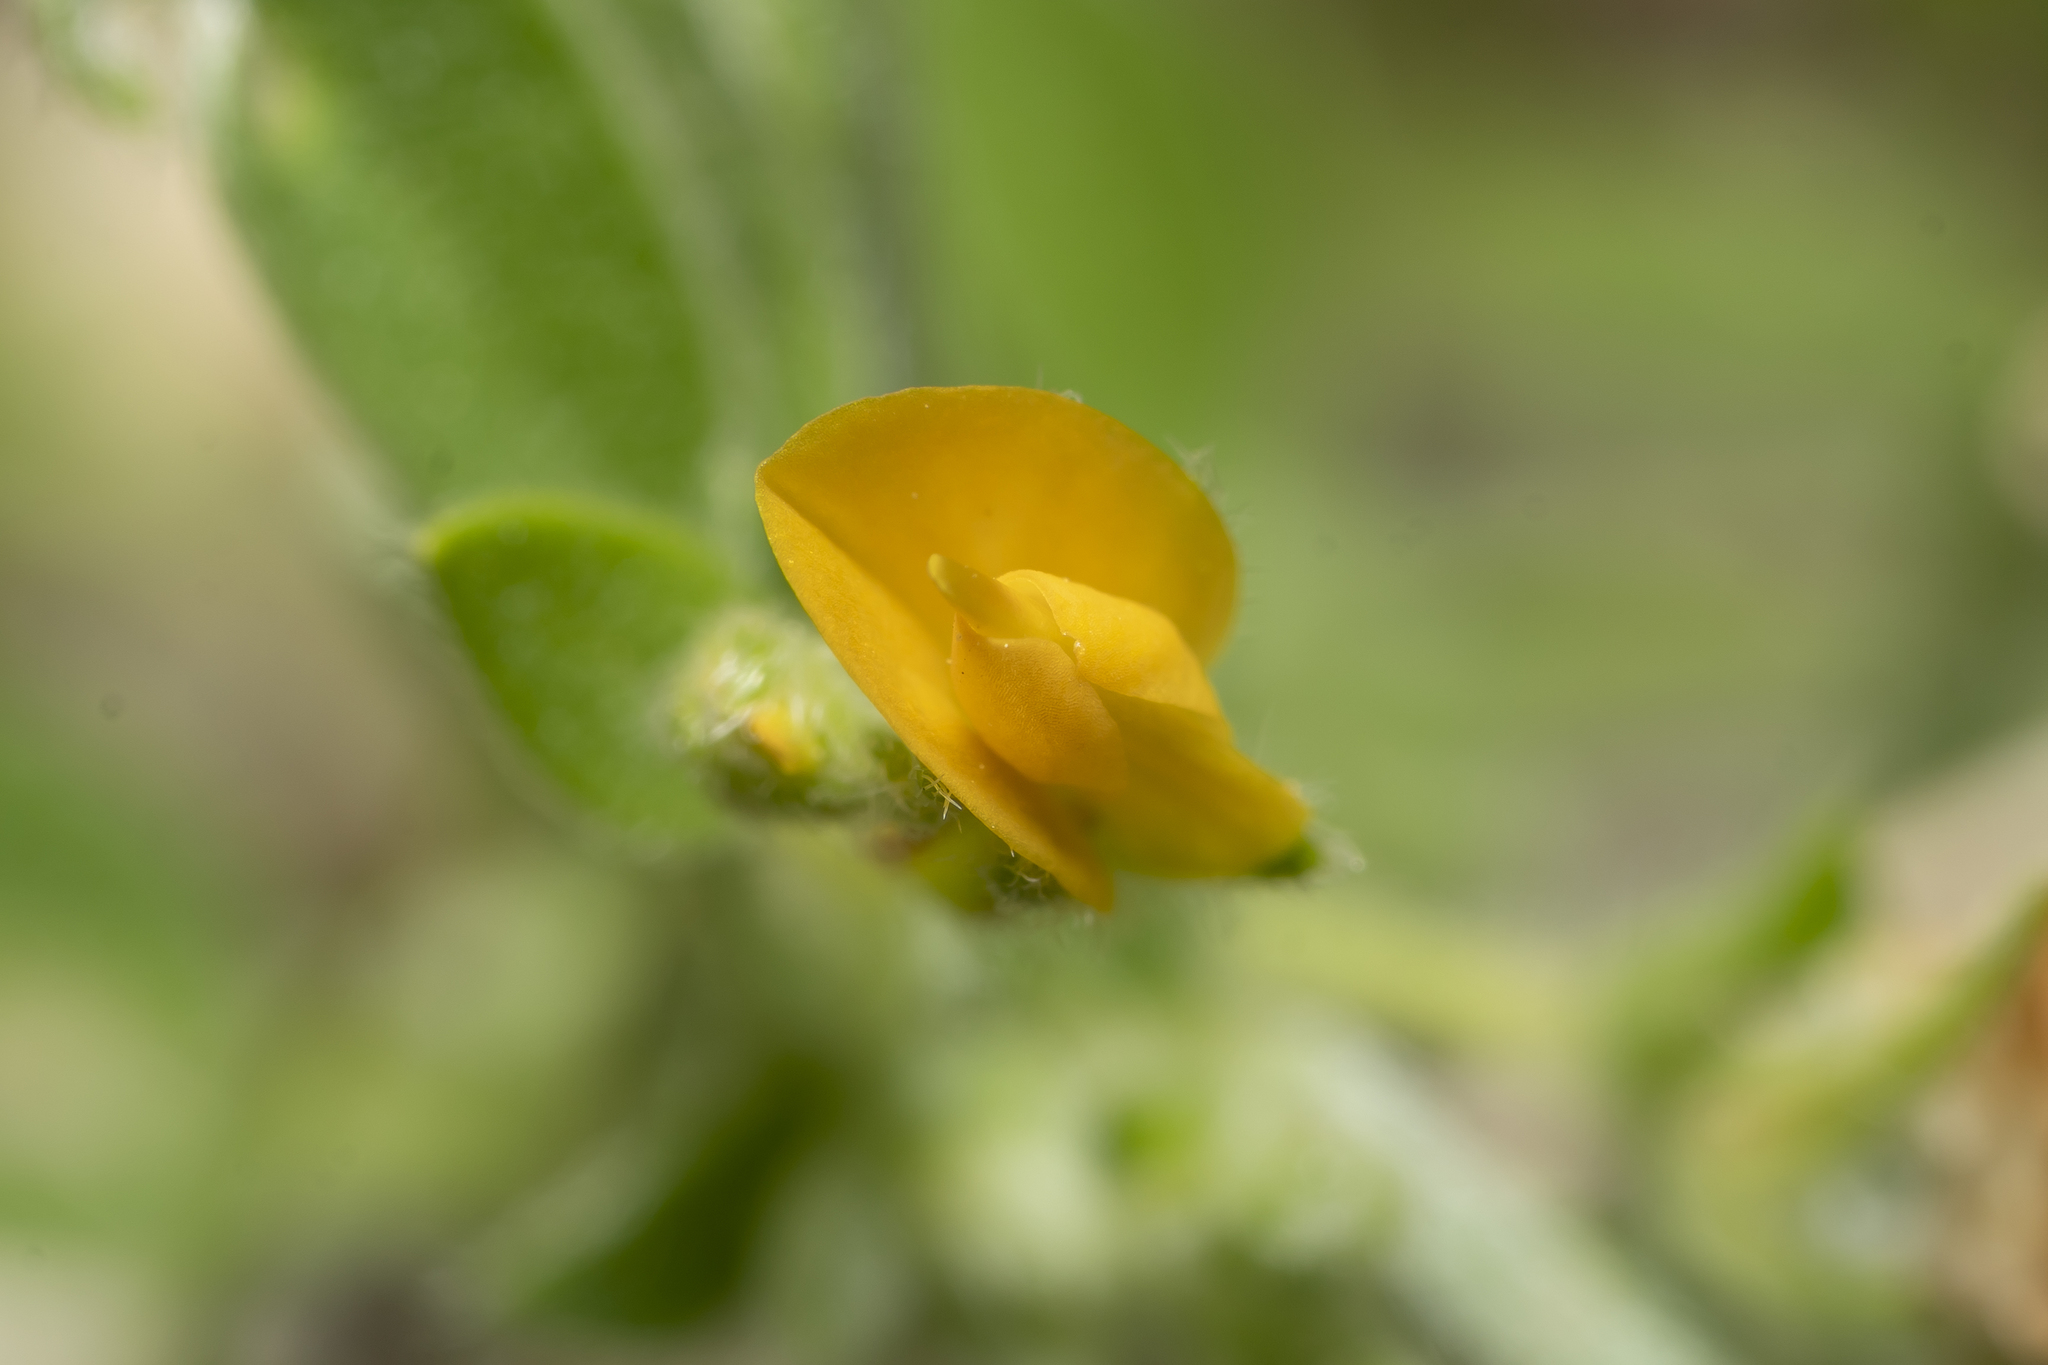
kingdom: Plantae
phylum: Tracheophyta
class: Magnoliopsida
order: Fabales
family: Fabaceae
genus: Anthyllis
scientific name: Anthyllis circinnata
